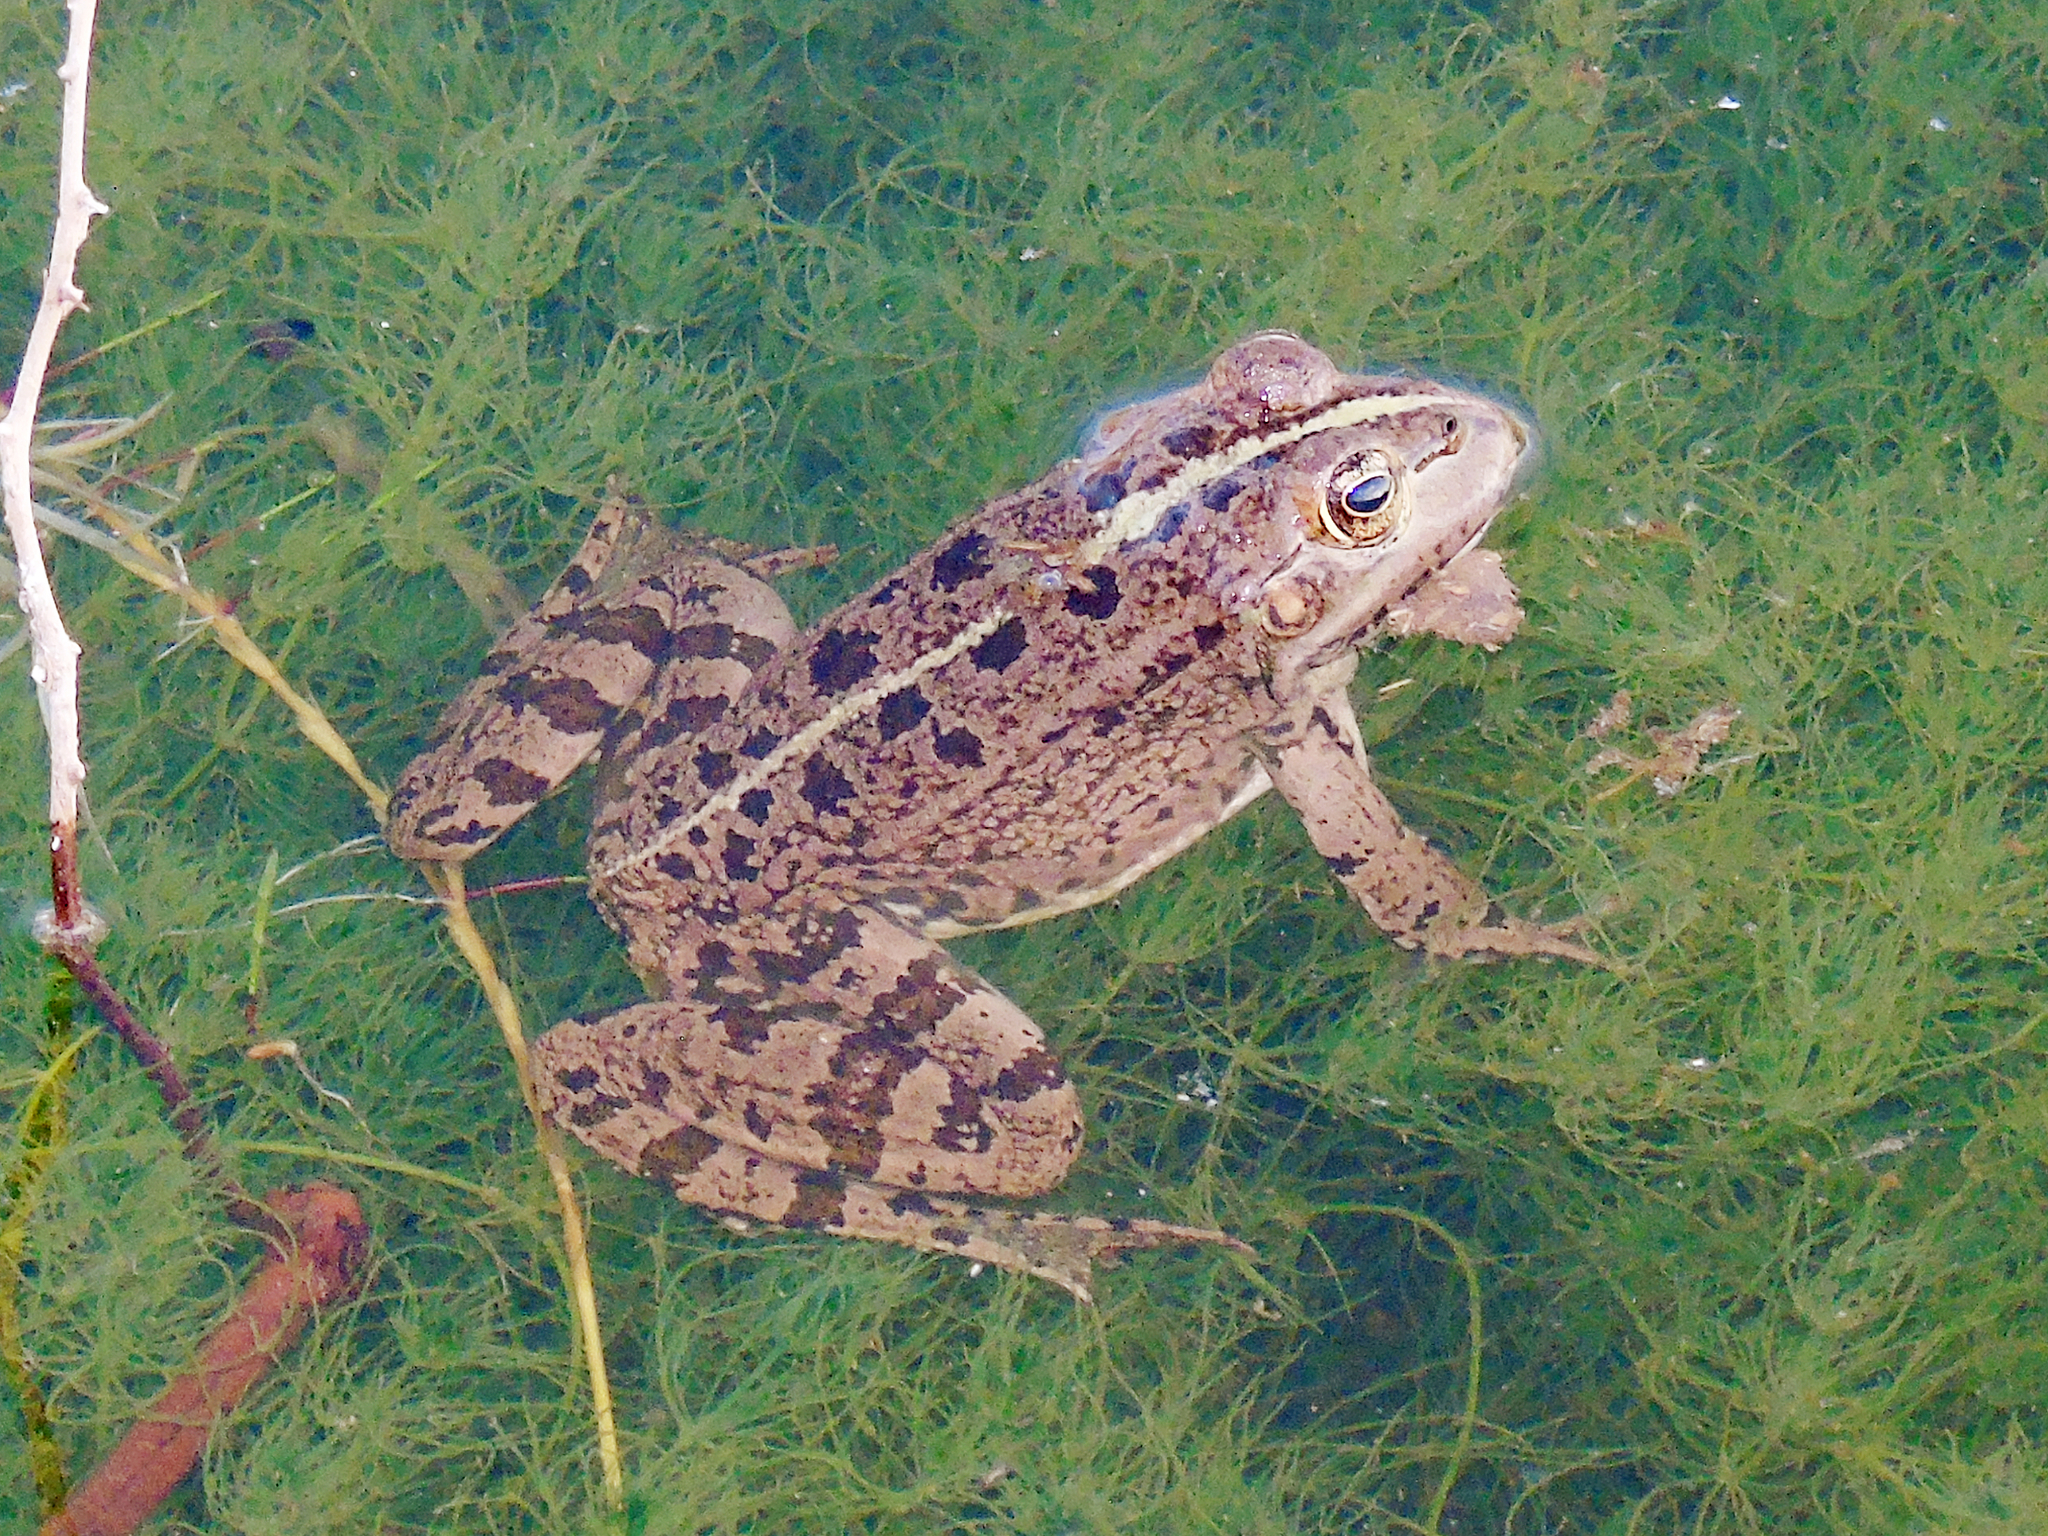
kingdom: Animalia
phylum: Chordata
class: Amphibia
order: Anura
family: Ranidae
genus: Pelophylax
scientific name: Pelophylax ridibundus
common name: Marsh frog
